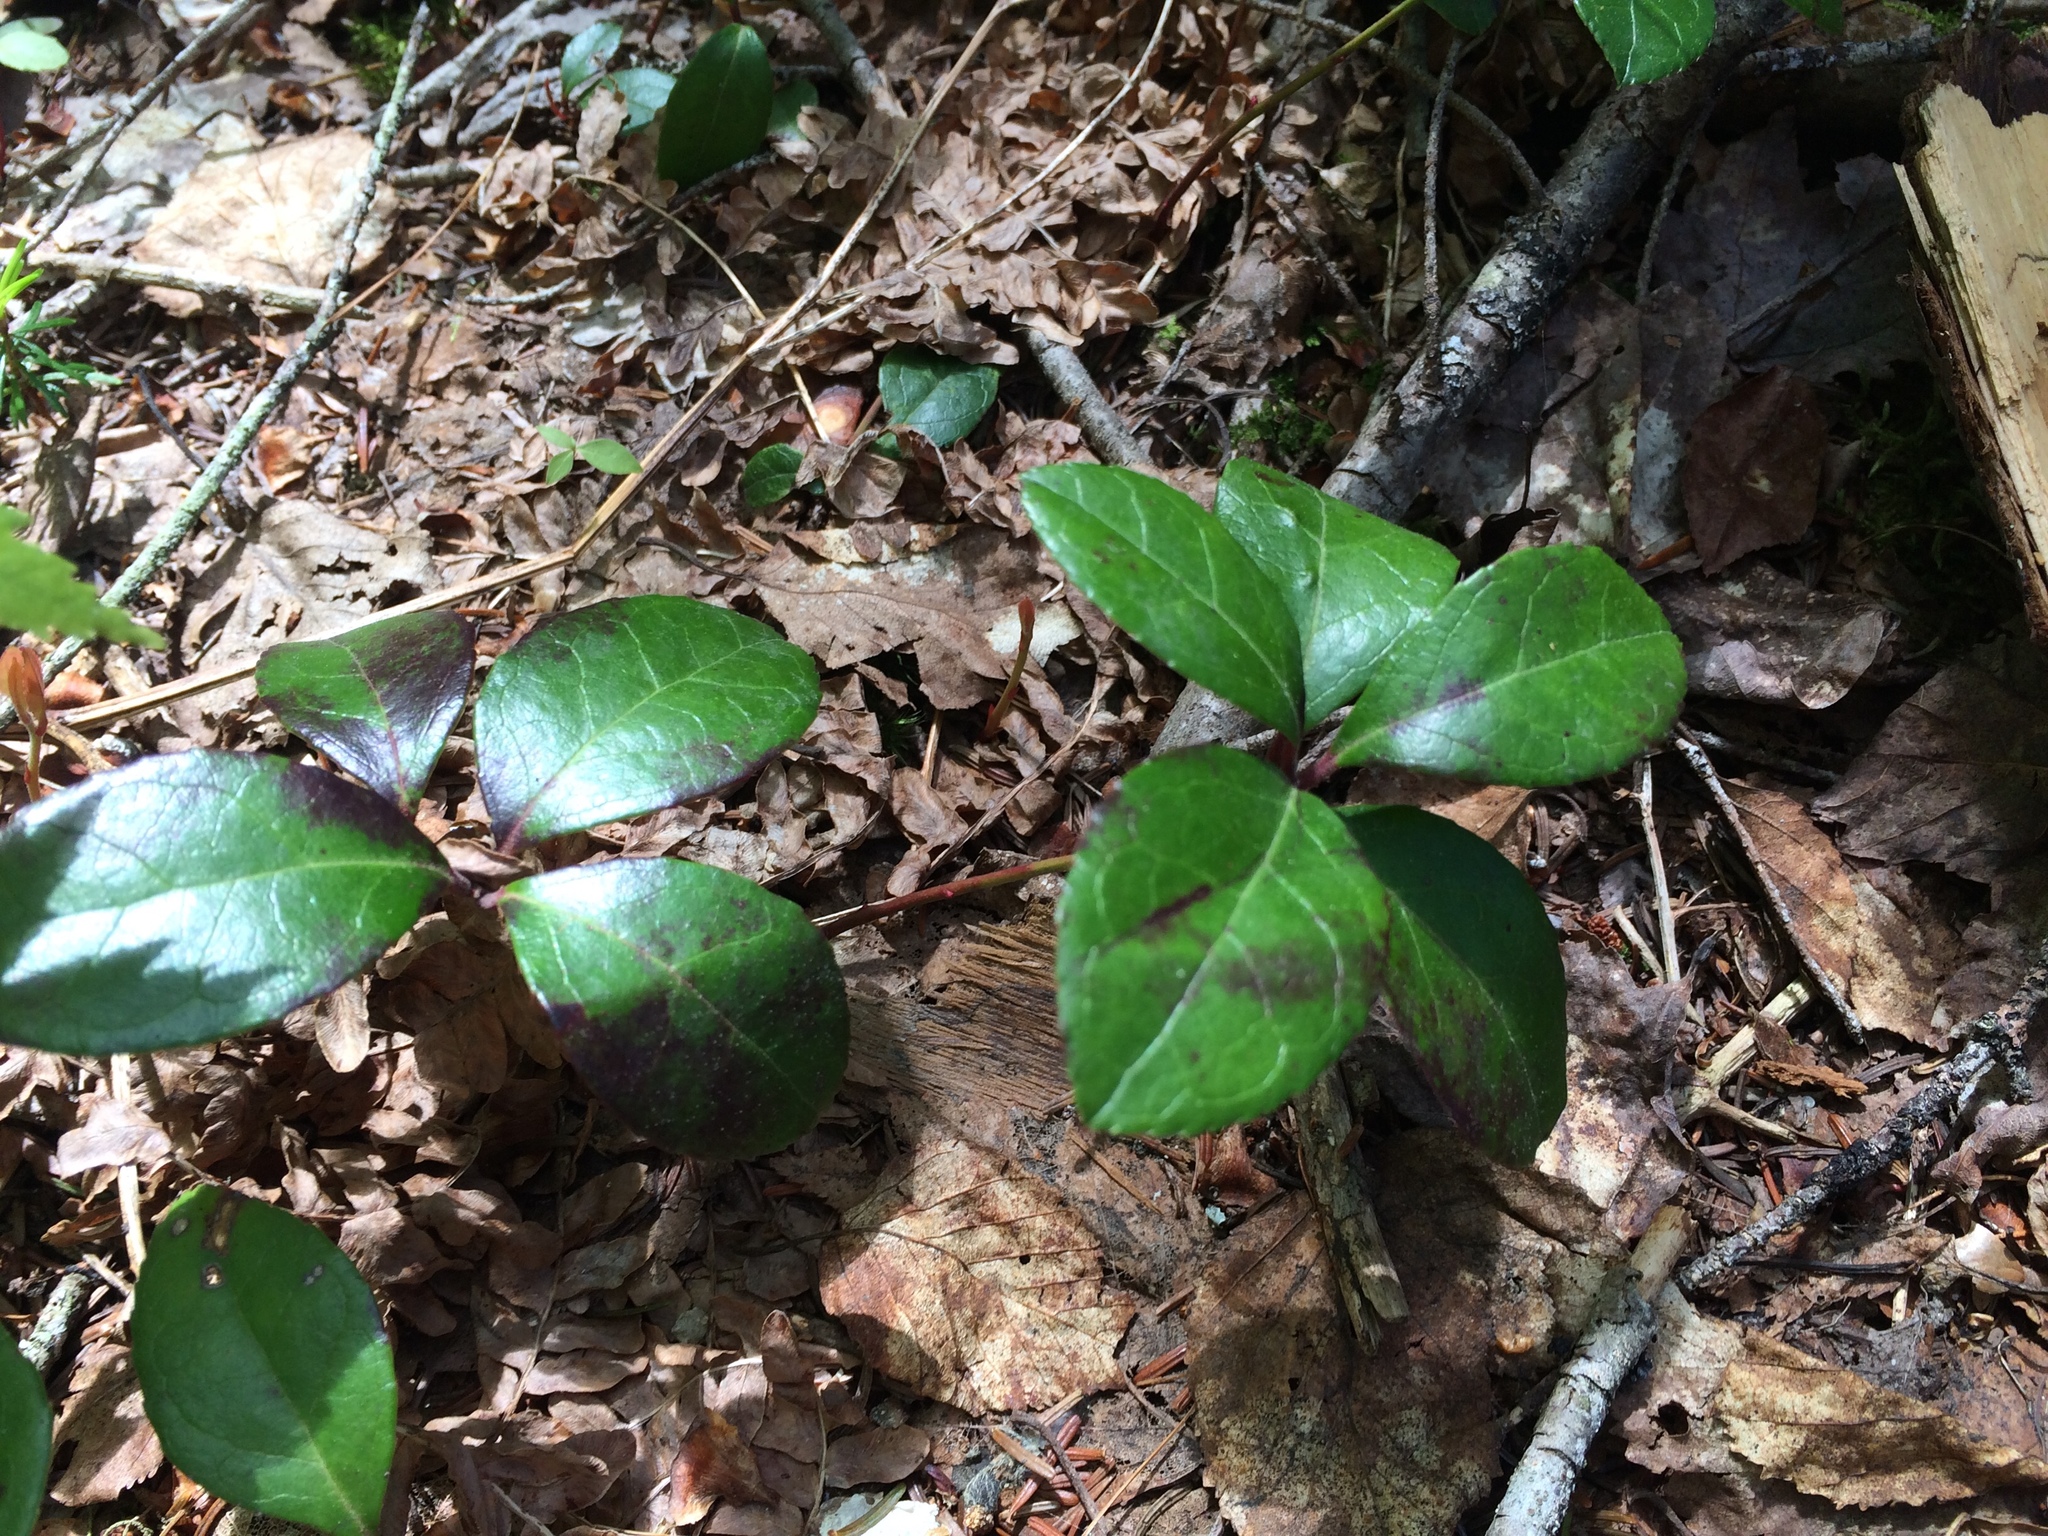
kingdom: Plantae
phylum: Tracheophyta
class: Magnoliopsida
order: Ericales
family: Ericaceae
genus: Gaultheria
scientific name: Gaultheria procumbens
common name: Checkerberry
